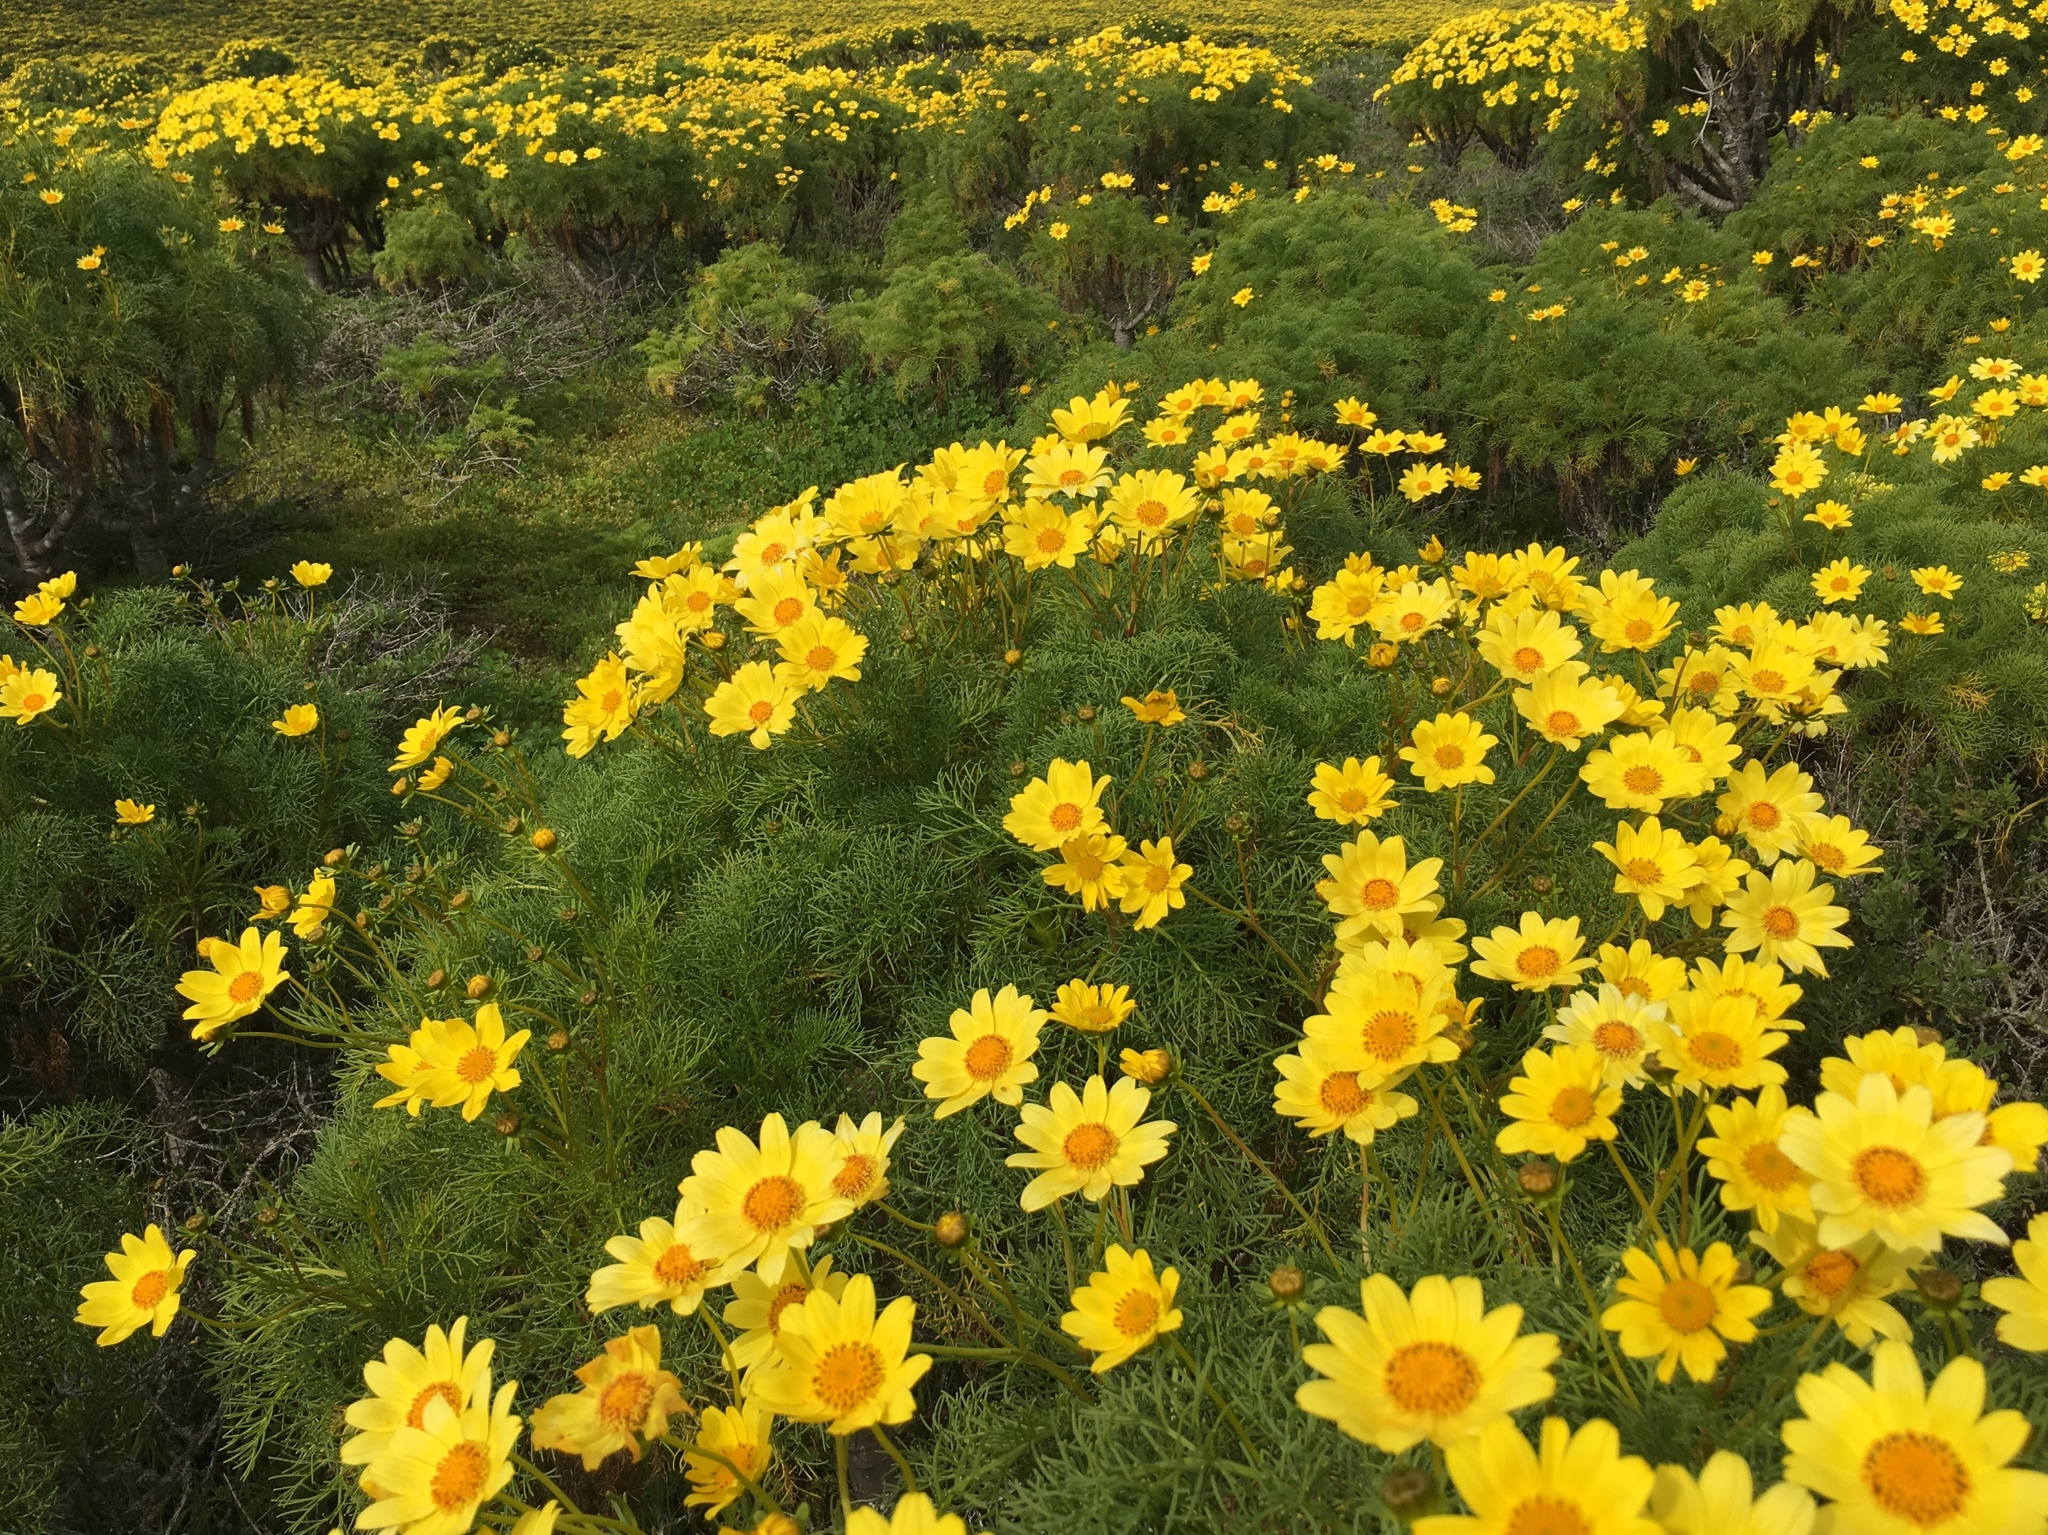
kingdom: Plantae
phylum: Tracheophyta
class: Magnoliopsida
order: Asterales
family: Asteraceae
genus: Coreopsis
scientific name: Coreopsis gigantea
